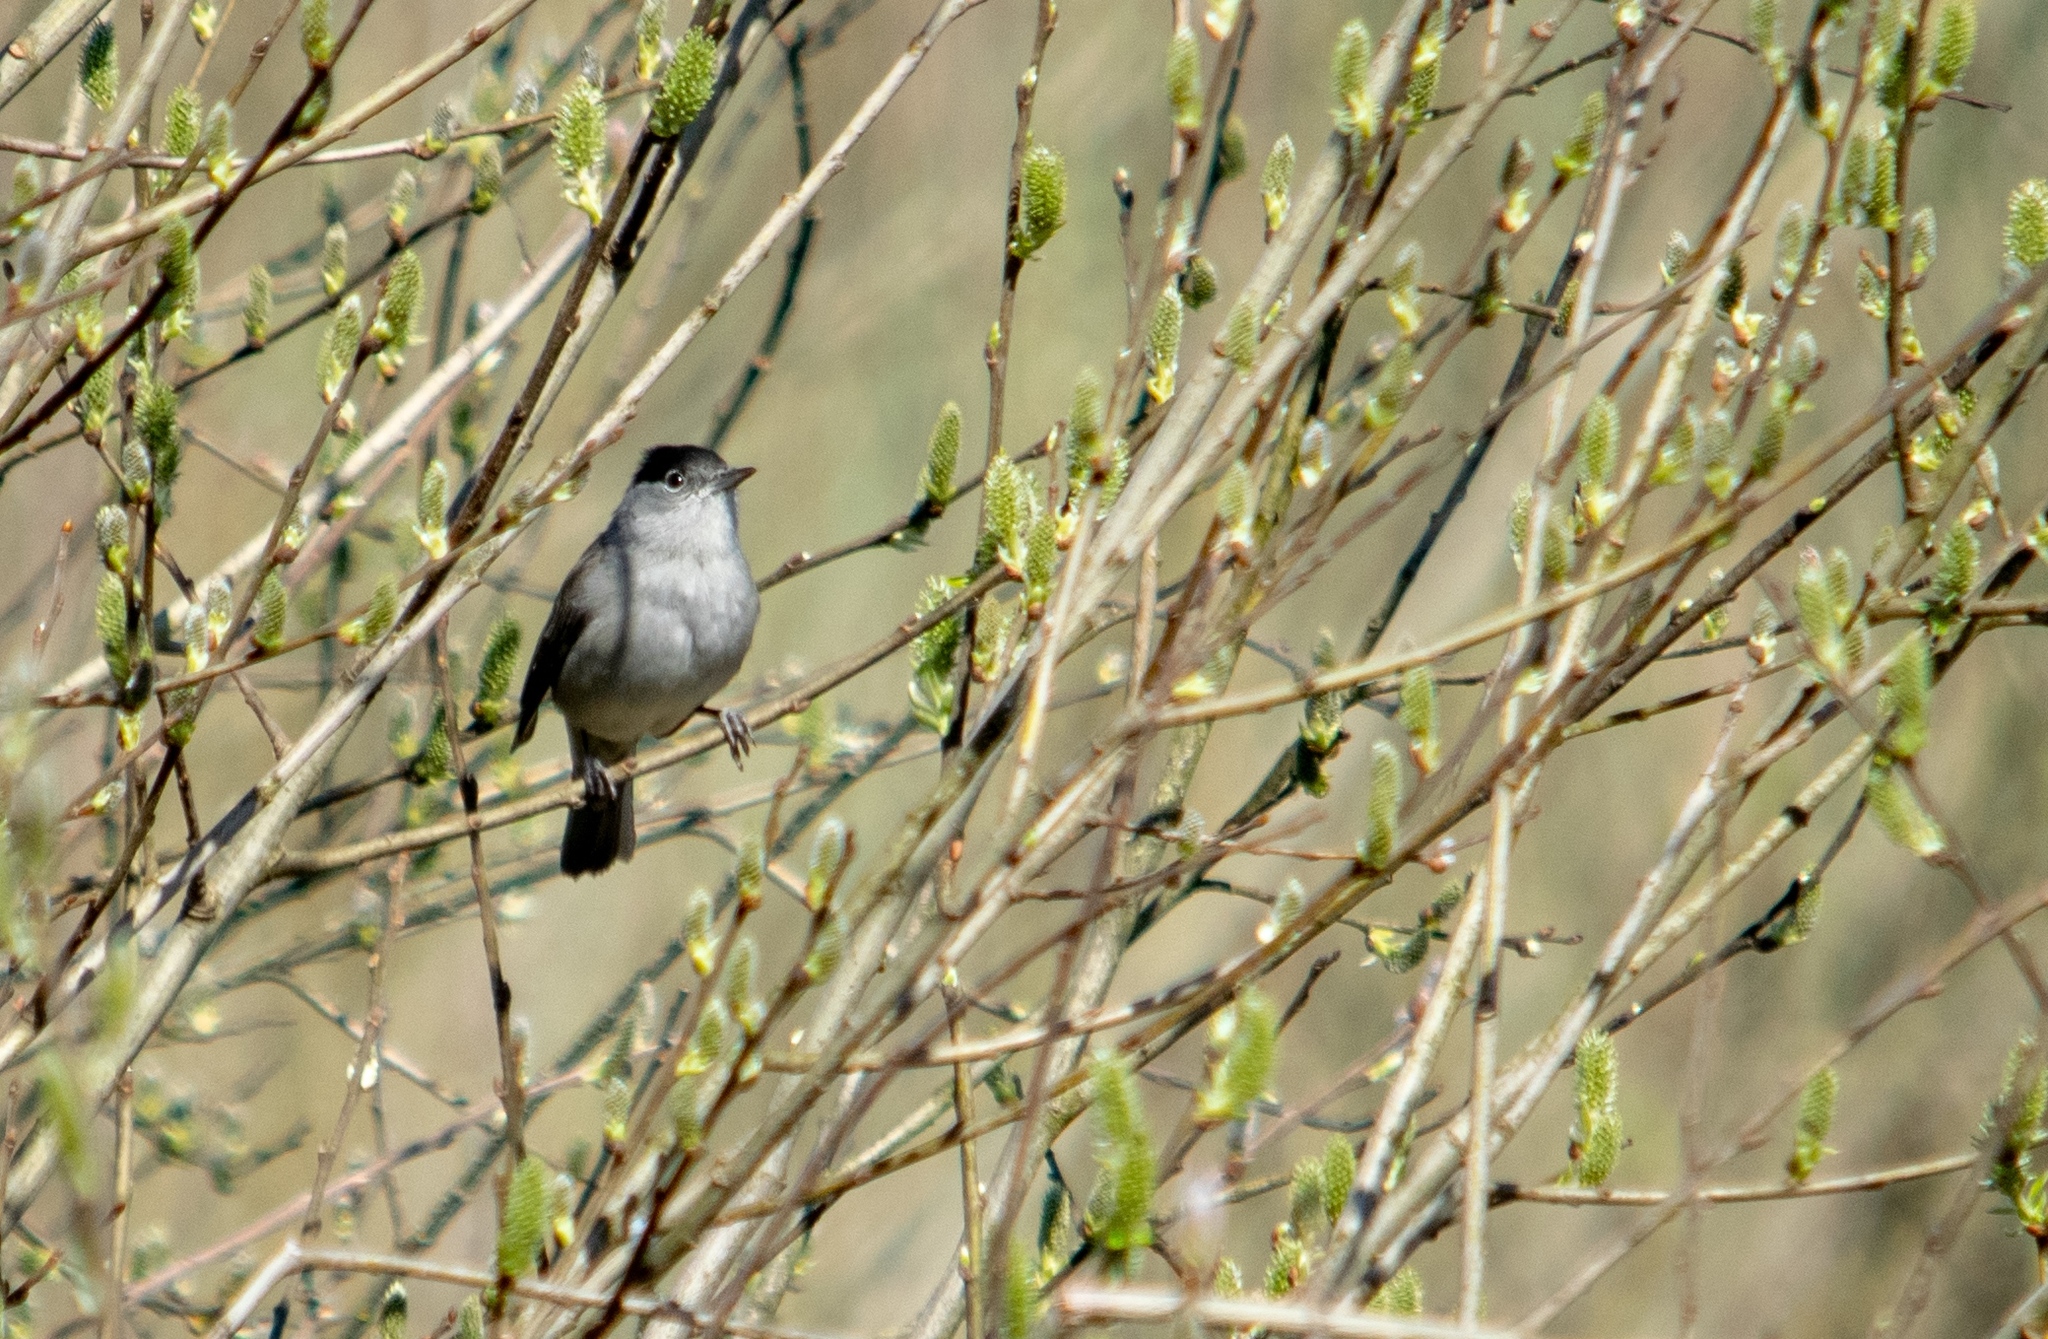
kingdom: Animalia
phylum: Chordata
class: Aves
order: Passeriformes
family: Sylviidae
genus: Sylvia
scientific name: Sylvia atricapilla
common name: Eurasian blackcap
